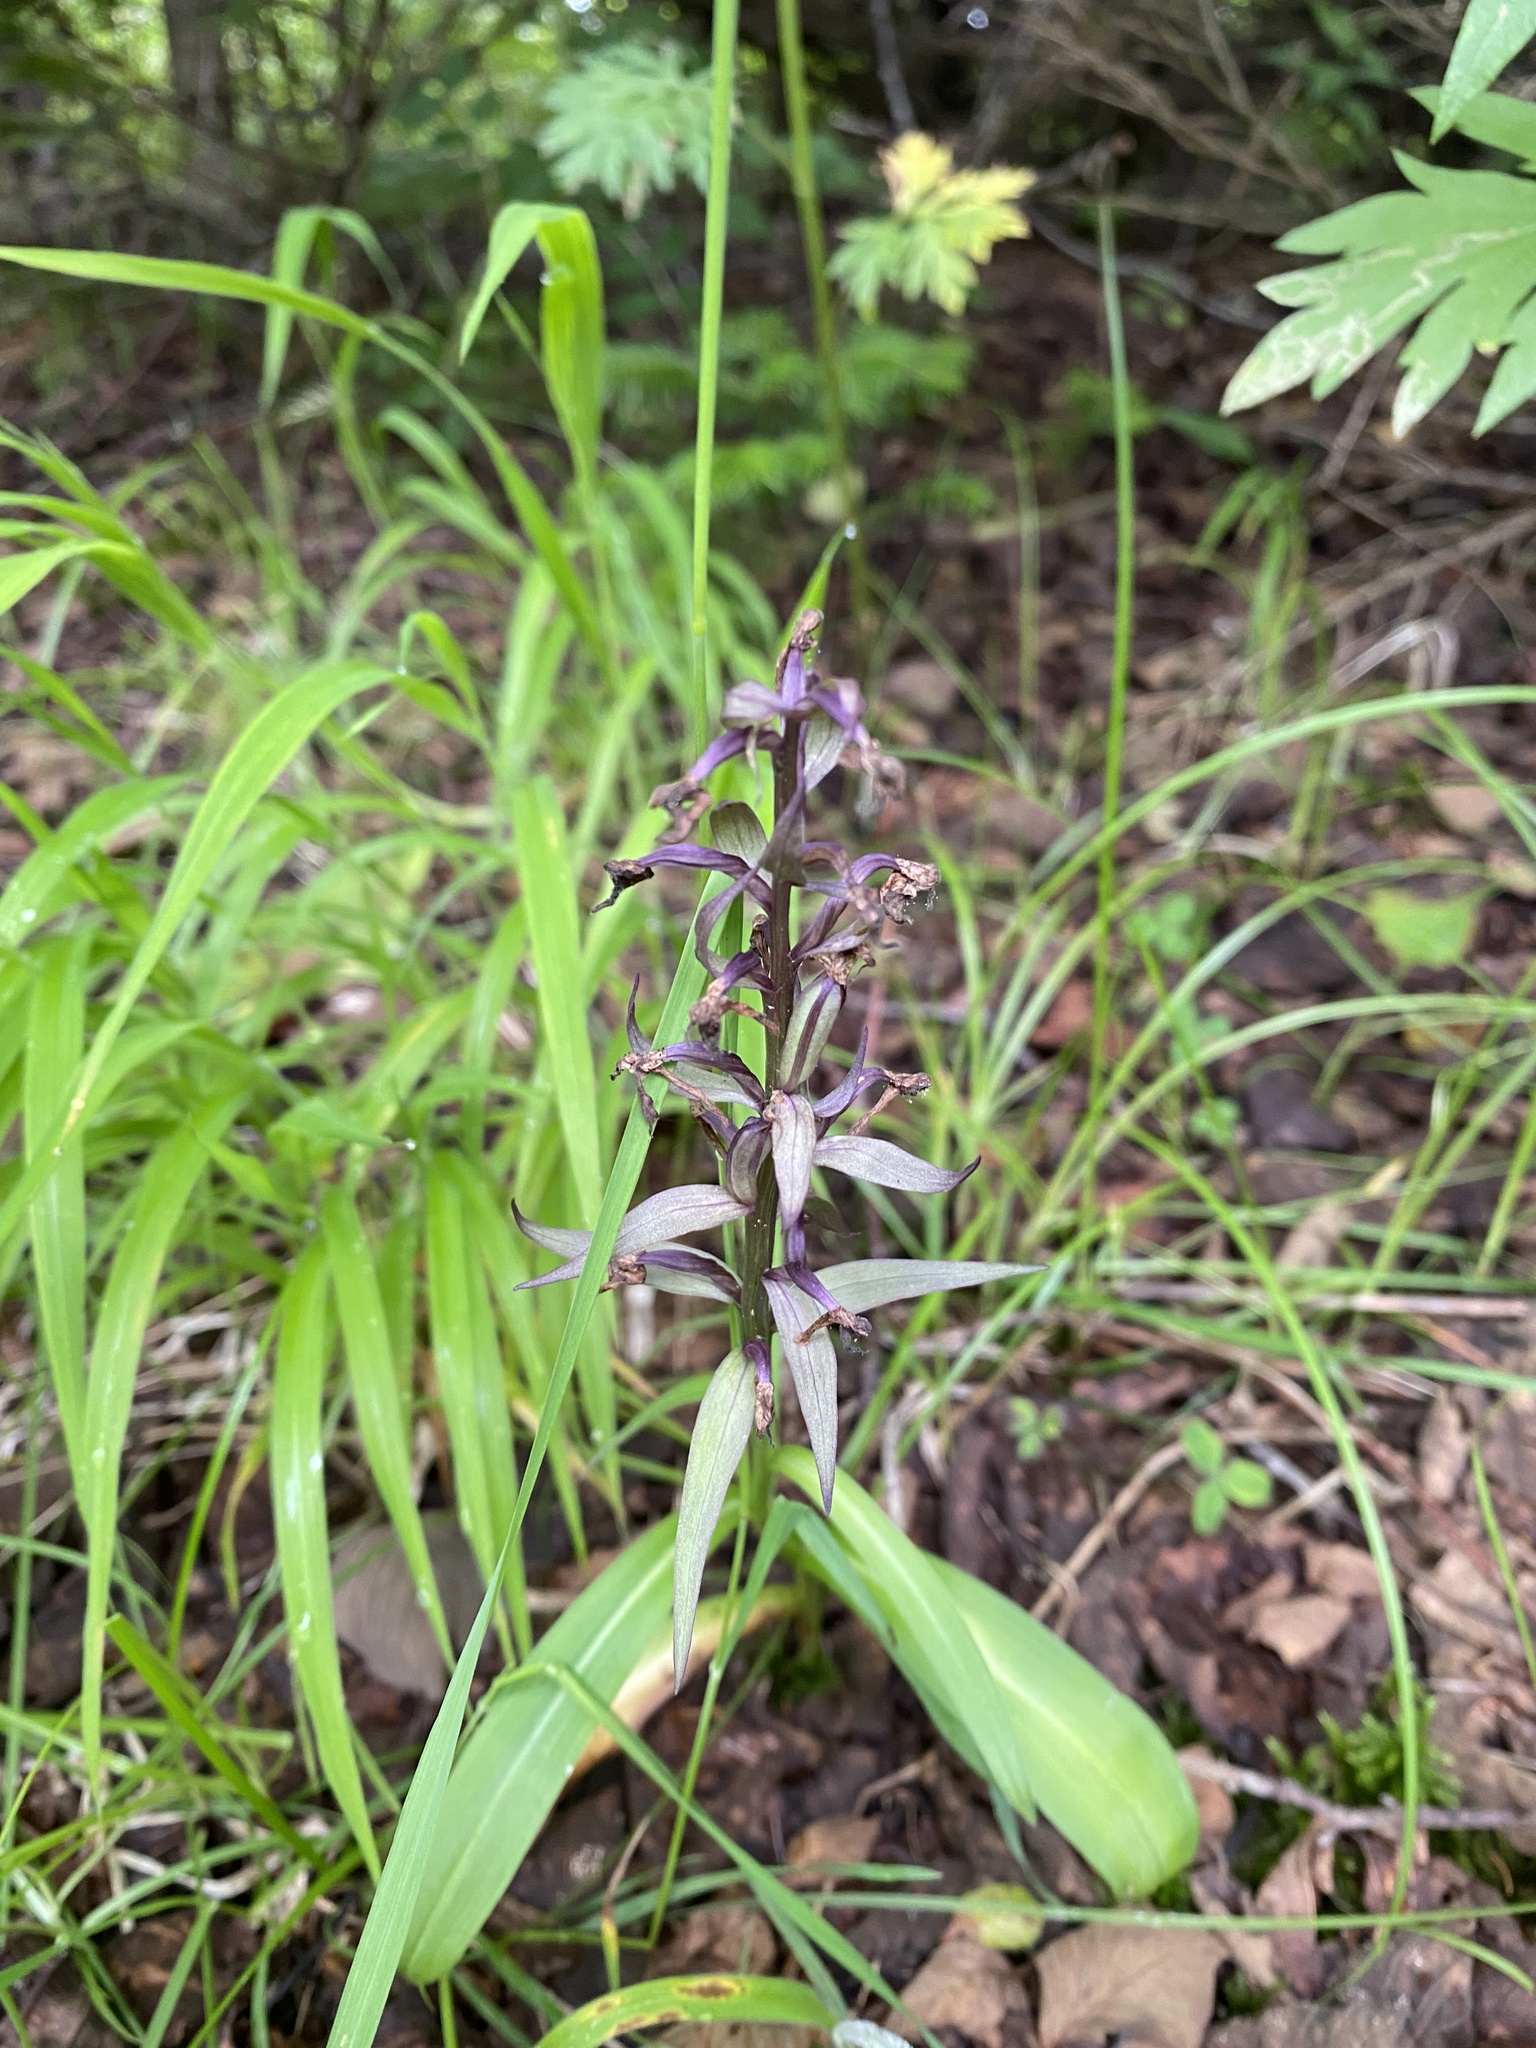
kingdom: Plantae
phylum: Tracheophyta
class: Liliopsida
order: Asparagales
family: Orchidaceae
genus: Dactylorhiza
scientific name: Dactylorhiza aristata
